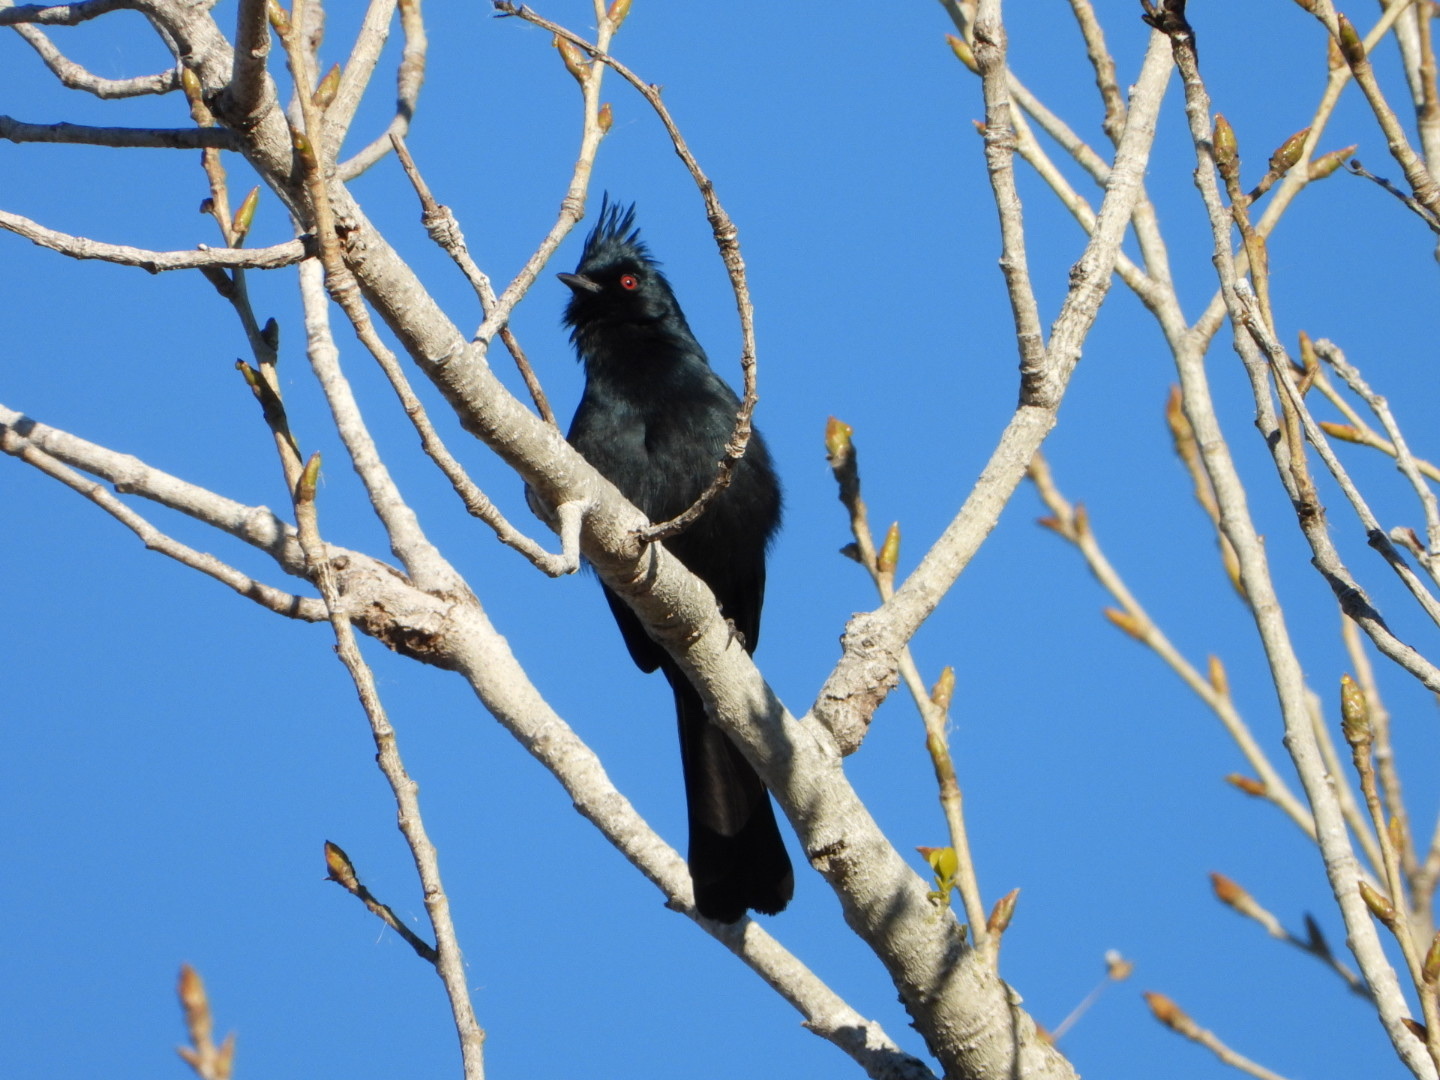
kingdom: Animalia
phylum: Chordata
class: Aves
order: Passeriformes
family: Ptilogonatidae
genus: Phainopepla
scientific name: Phainopepla nitens
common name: Phainopepla
